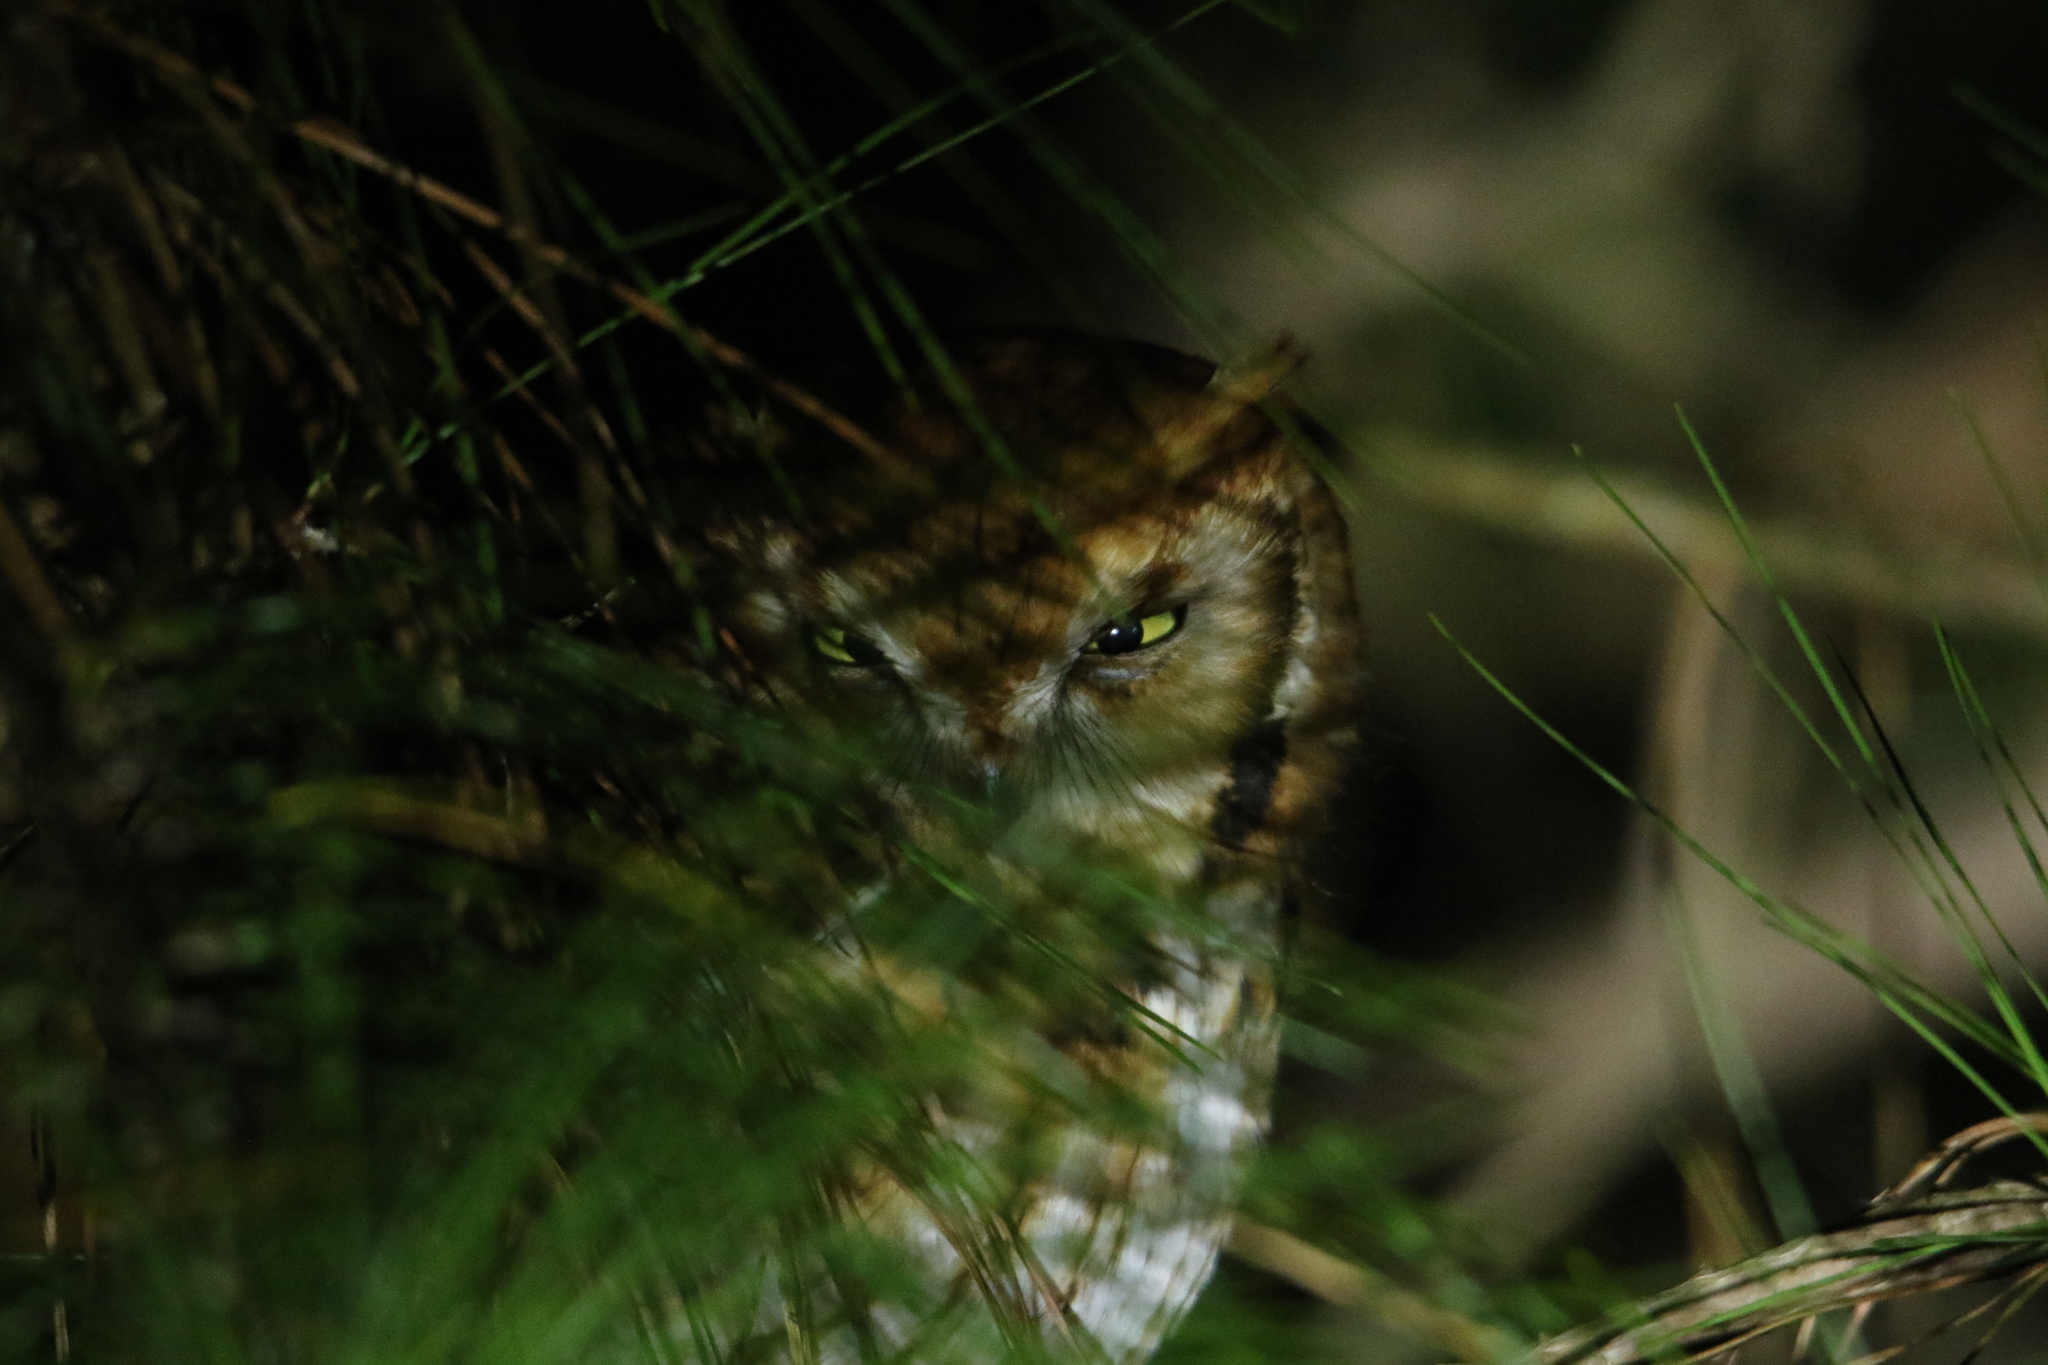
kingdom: Animalia
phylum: Chordata
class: Aves
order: Strigiformes
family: Strigidae
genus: Megascops
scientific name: Megascops asio
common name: Eastern screech-owl
